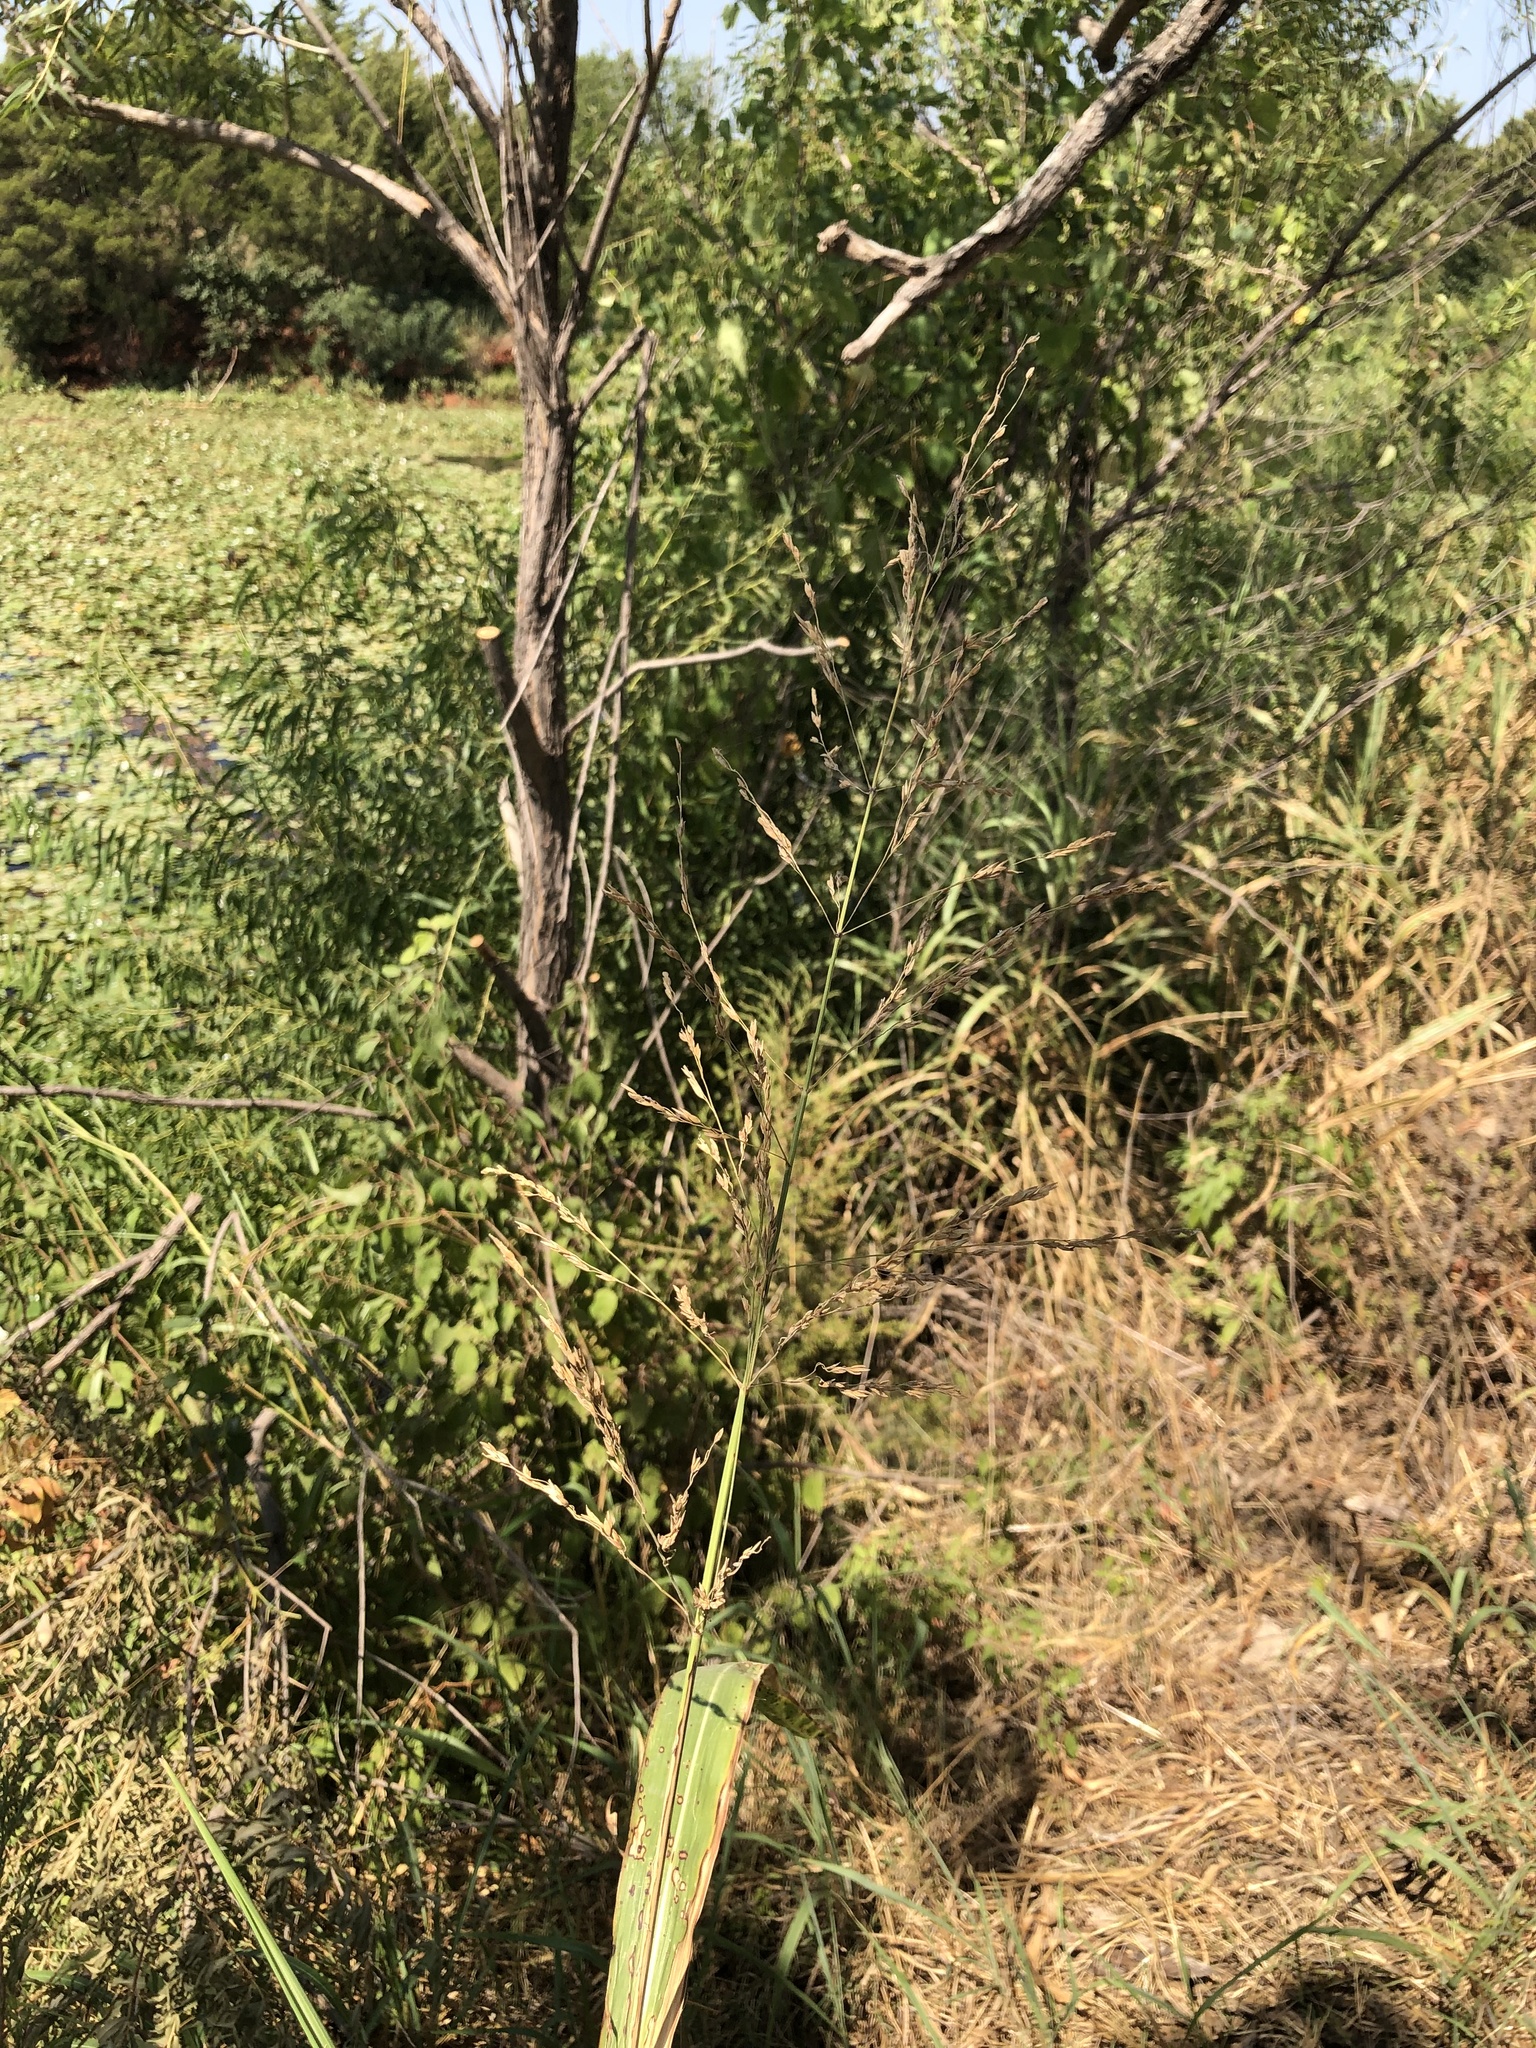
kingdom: Plantae
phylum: Tracheophyta
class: Liliopsida
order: Poales
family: Poaceae
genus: Sorghum
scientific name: Sorghum halepense
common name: Johnson-grass
